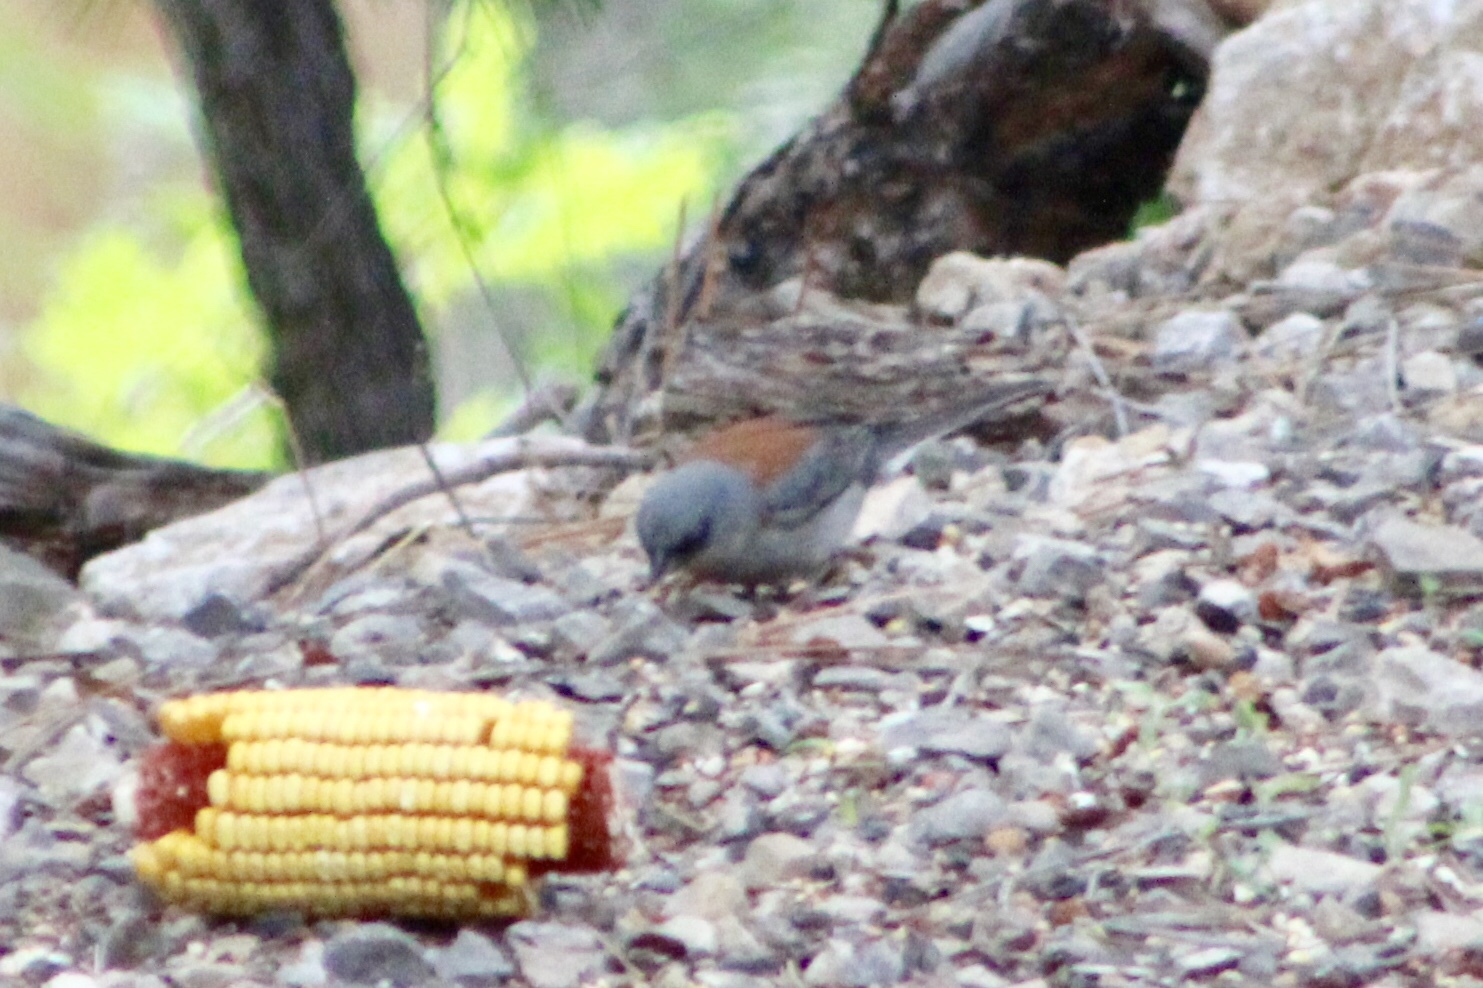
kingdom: Animalia
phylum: Chordata
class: Aves
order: Passeriformes
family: Passerellidae
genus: Junco
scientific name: Junco hyemalis
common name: Dark-eyed junco
